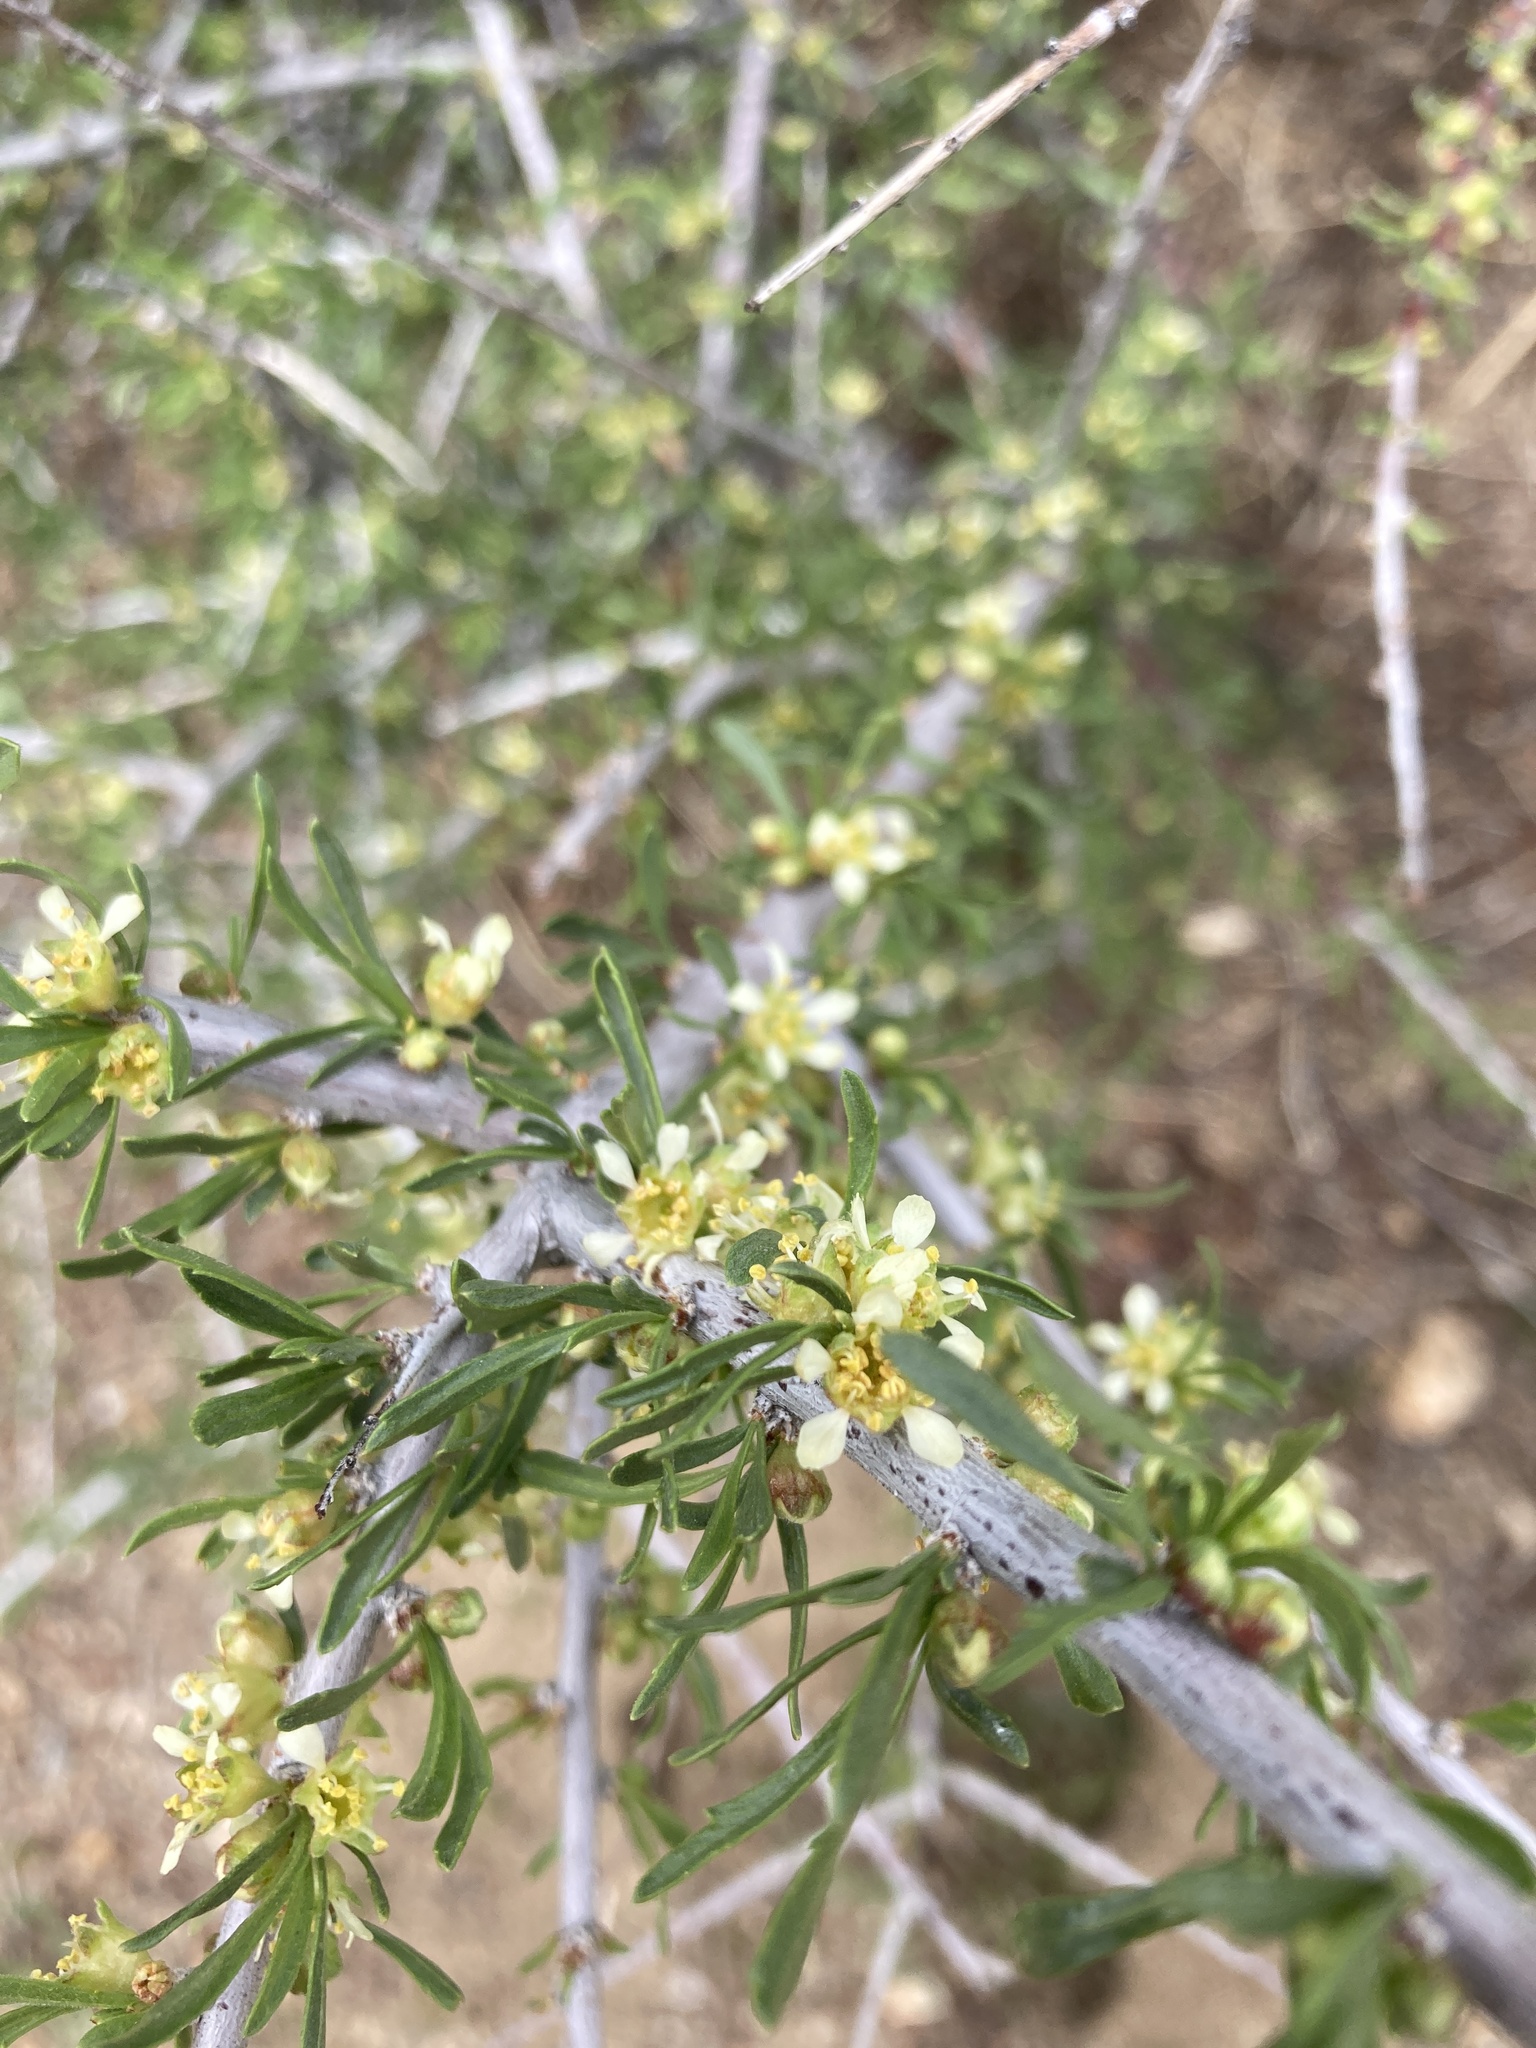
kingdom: Plantae
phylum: Tracheophyta
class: Magnoliopsida
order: Rosales
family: Rosaceae
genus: Prunus
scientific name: Prunus fasciculata
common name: Desert almond
